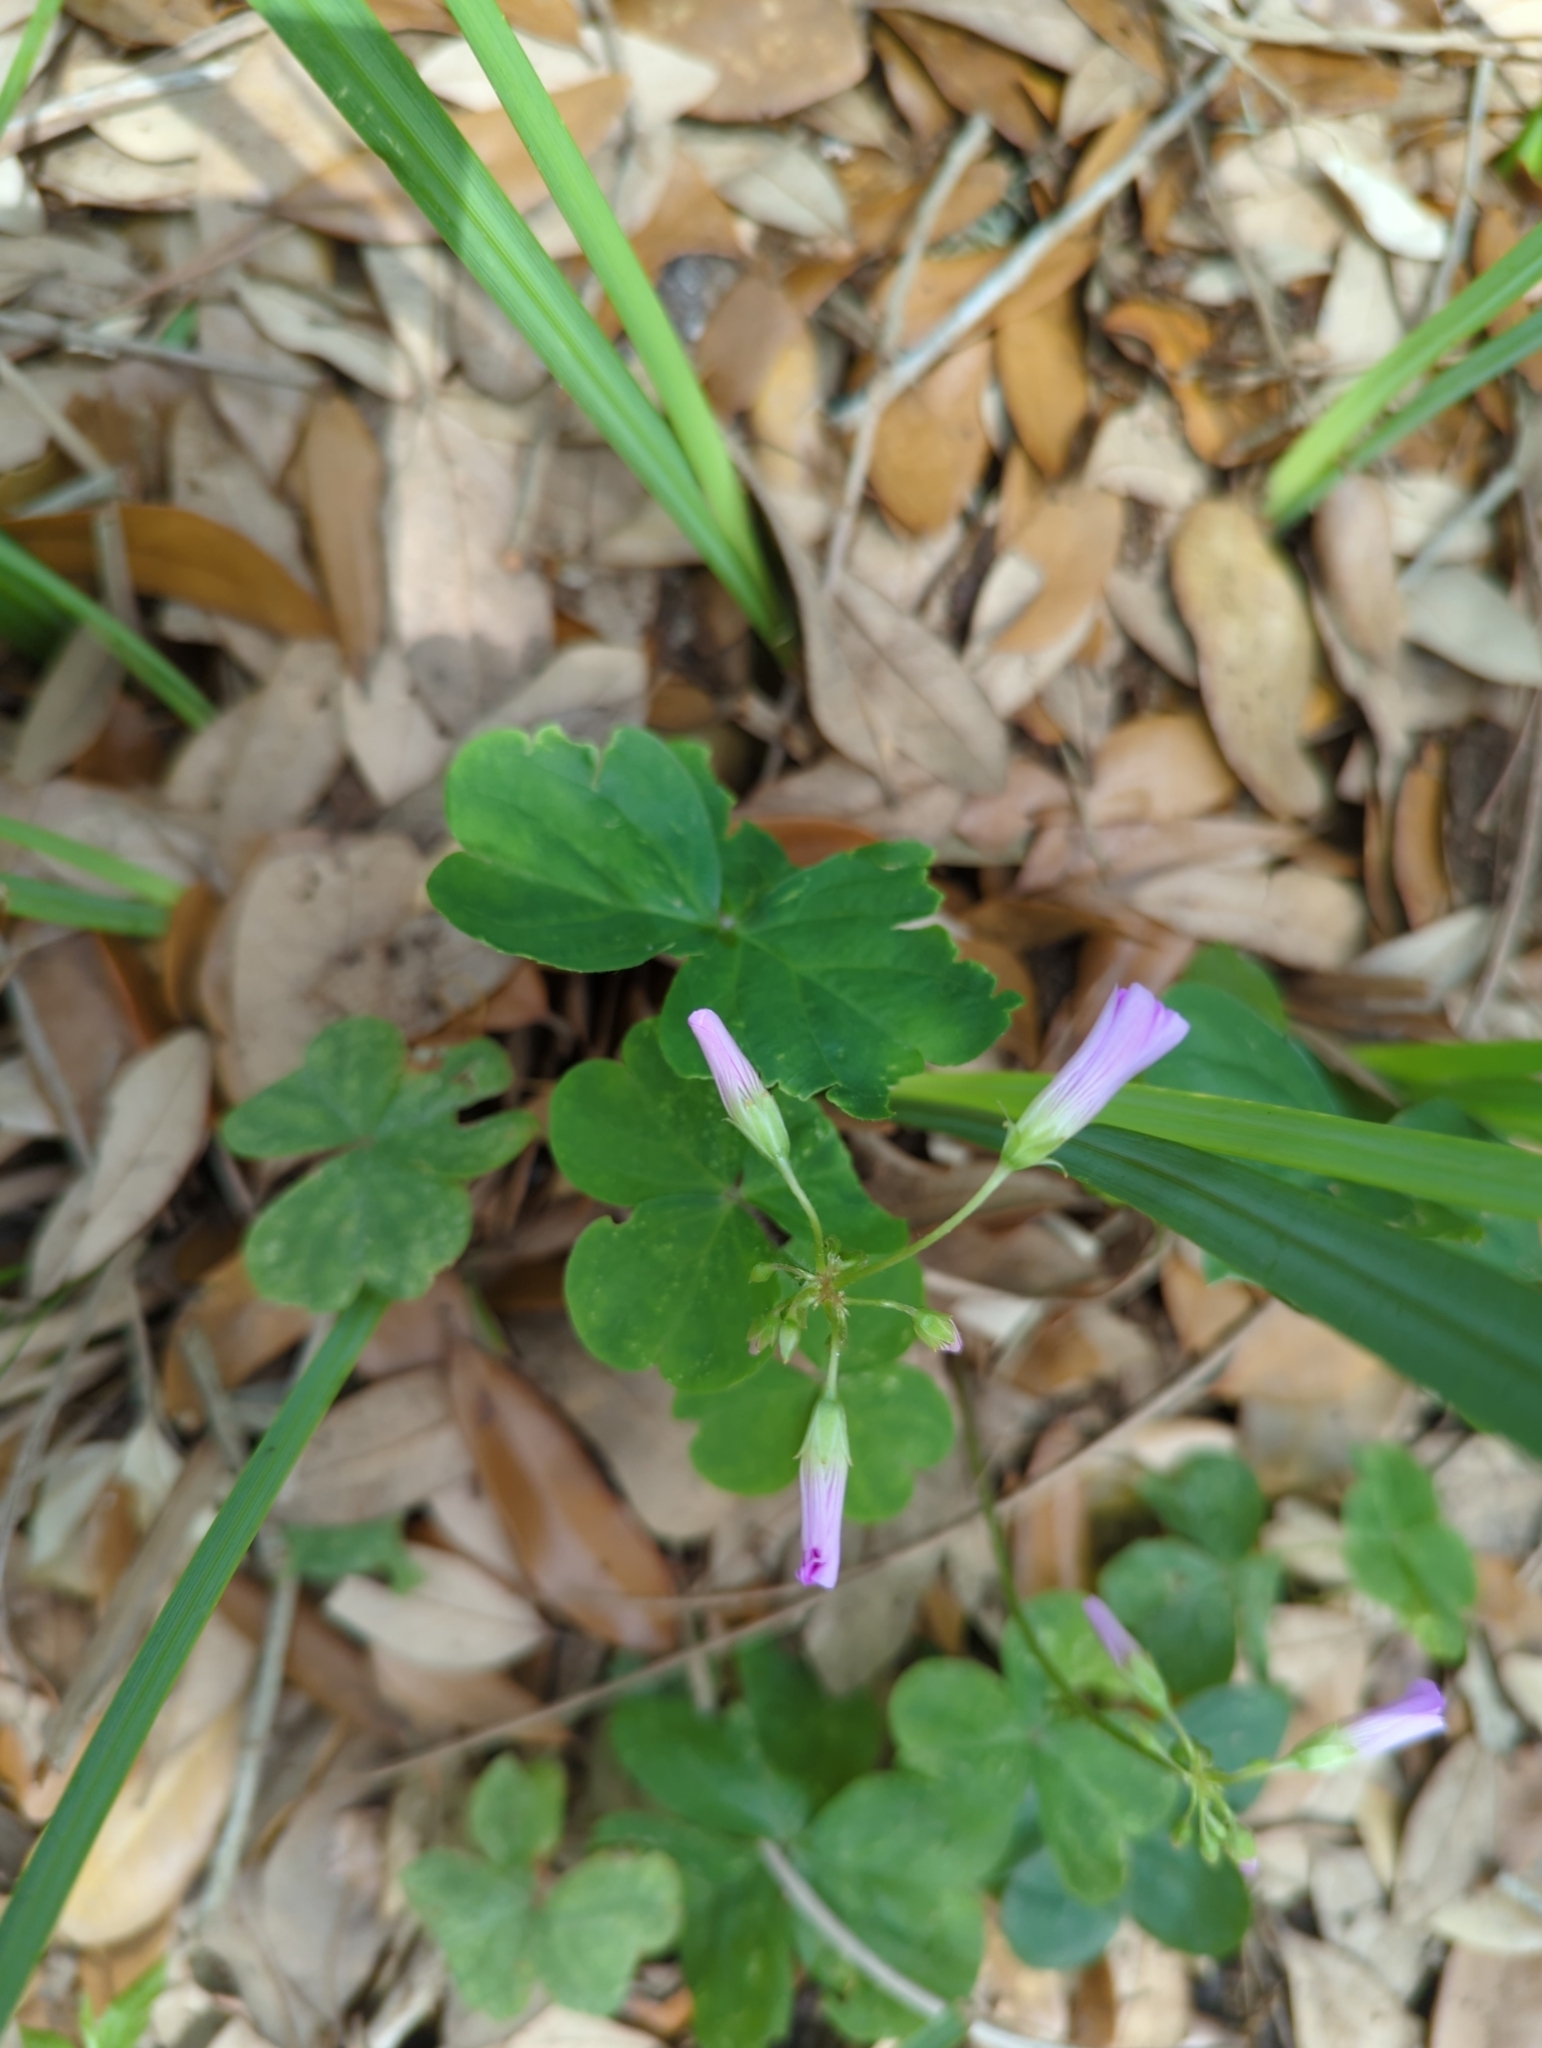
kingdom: Plantae
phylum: Tracheophyta
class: Magnoliopsida
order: Oxalidales
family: Oxalidaceae
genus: Oxalis
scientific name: Oxalis debilis
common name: Large-flowered pink-sorrel
